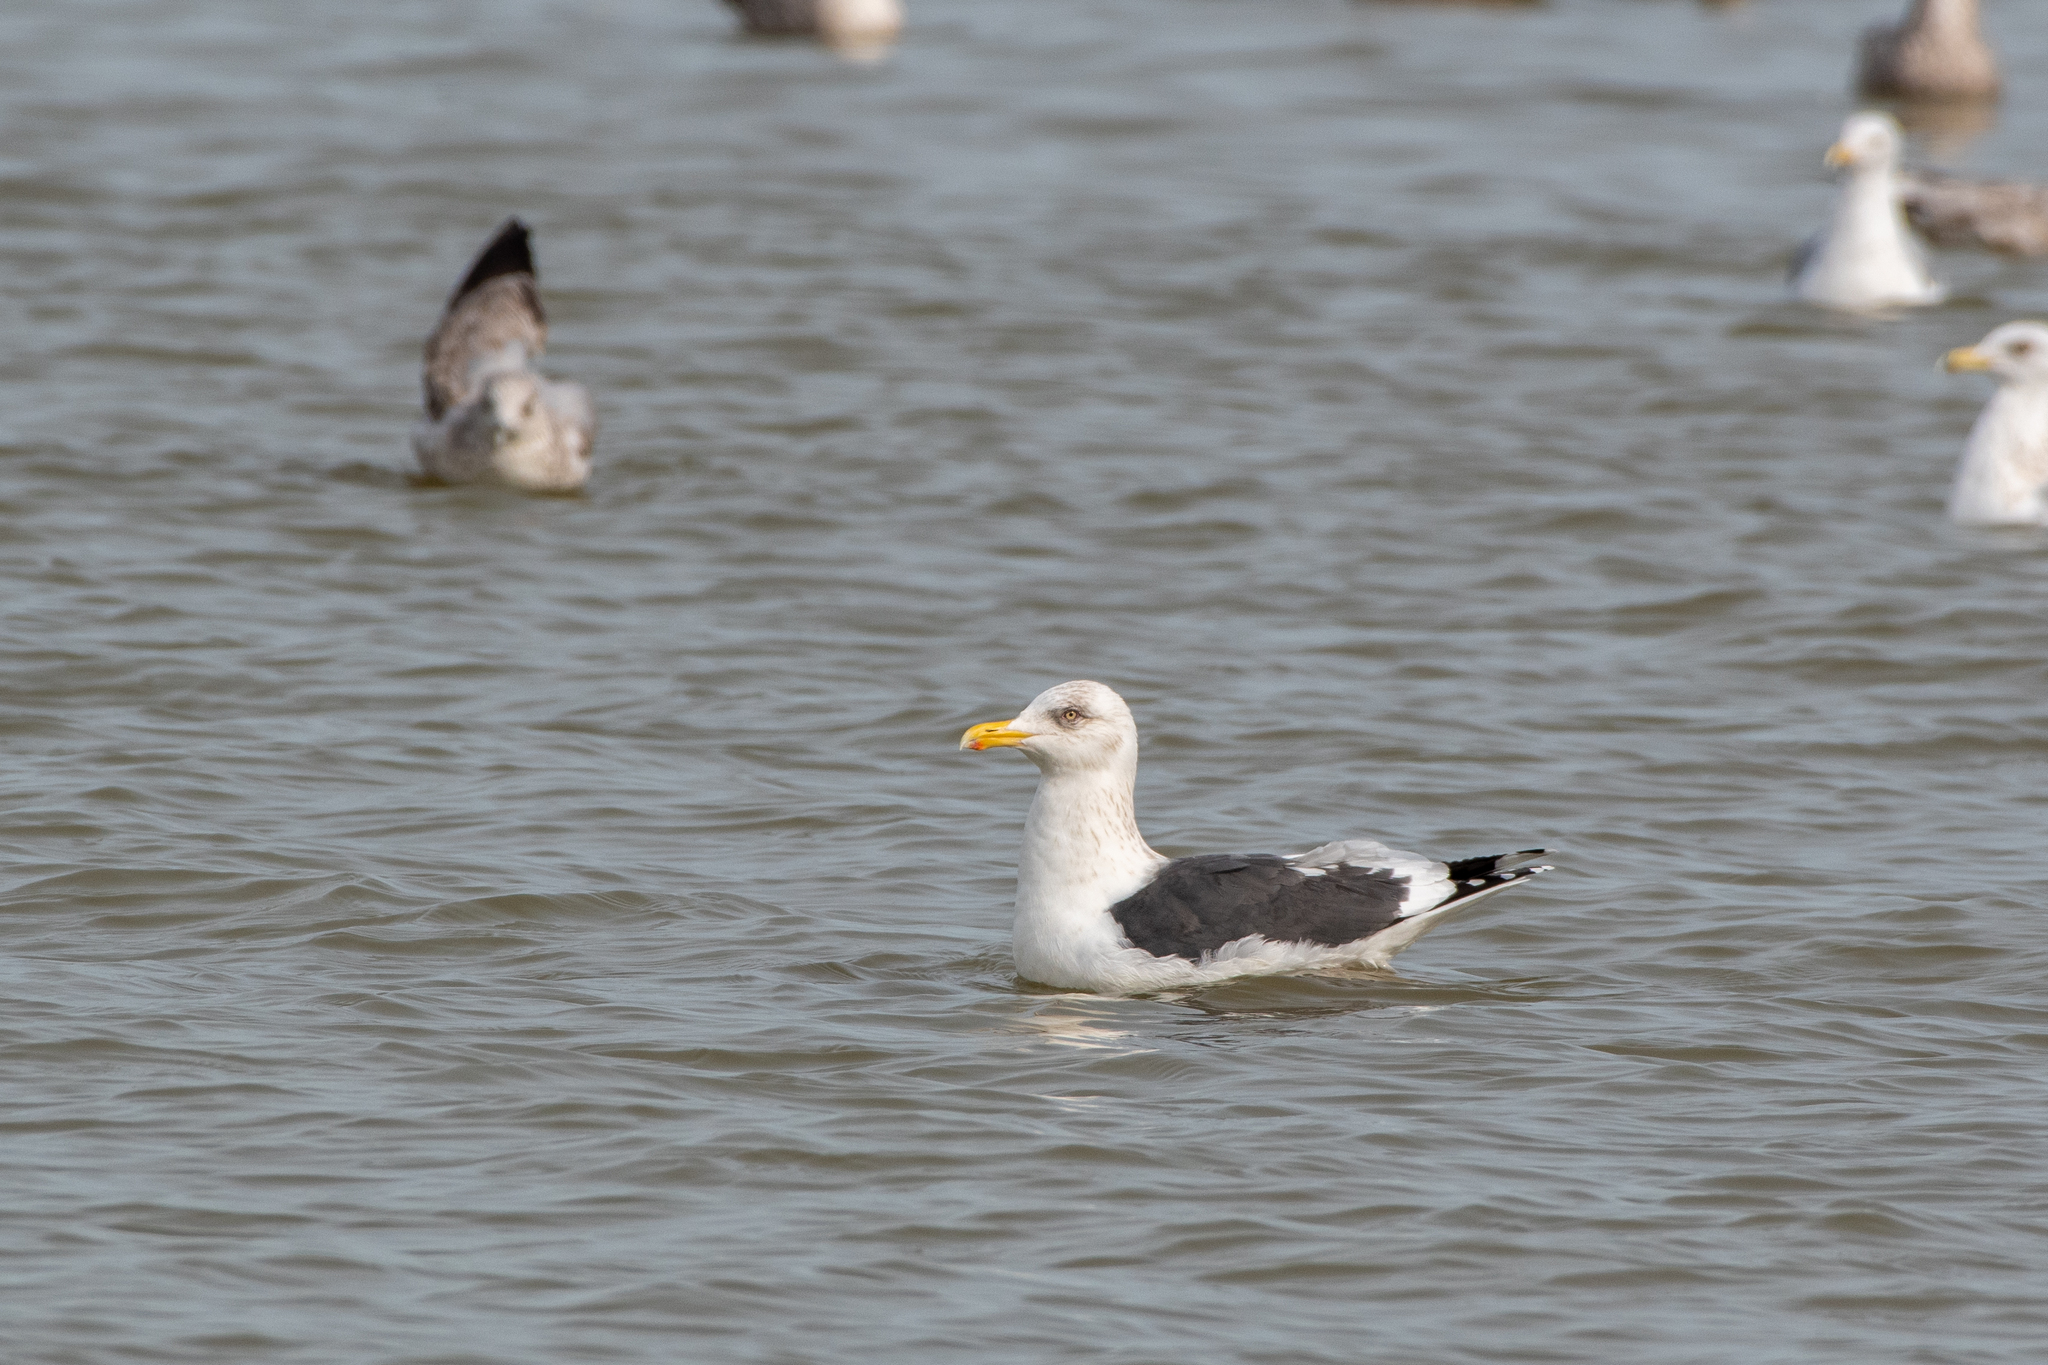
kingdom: Animalia
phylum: Chordata
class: Aves
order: Charadriiformes
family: Laridae
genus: Larus
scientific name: Larus schistisagus
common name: Slaty-backed gull
